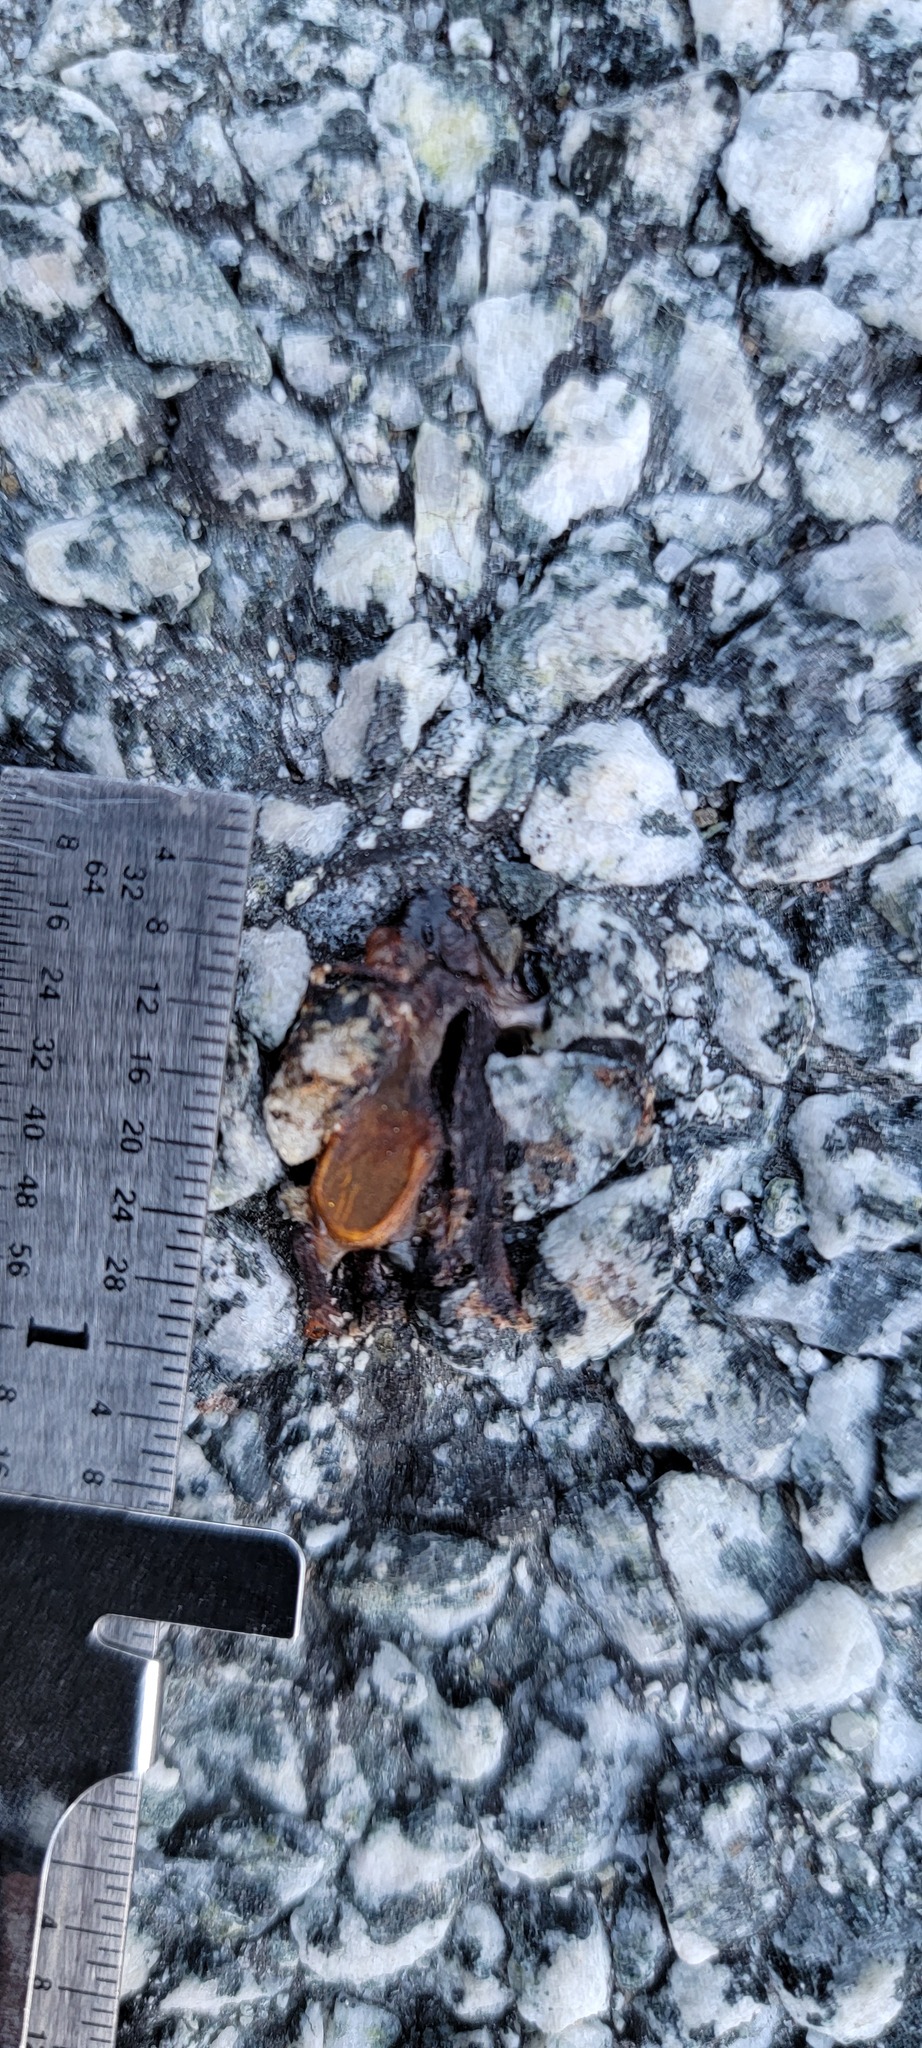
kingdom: Animalia
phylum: Chordata
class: Amphibia
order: Caudata
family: Salamandridae
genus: Taricha
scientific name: Taricha
